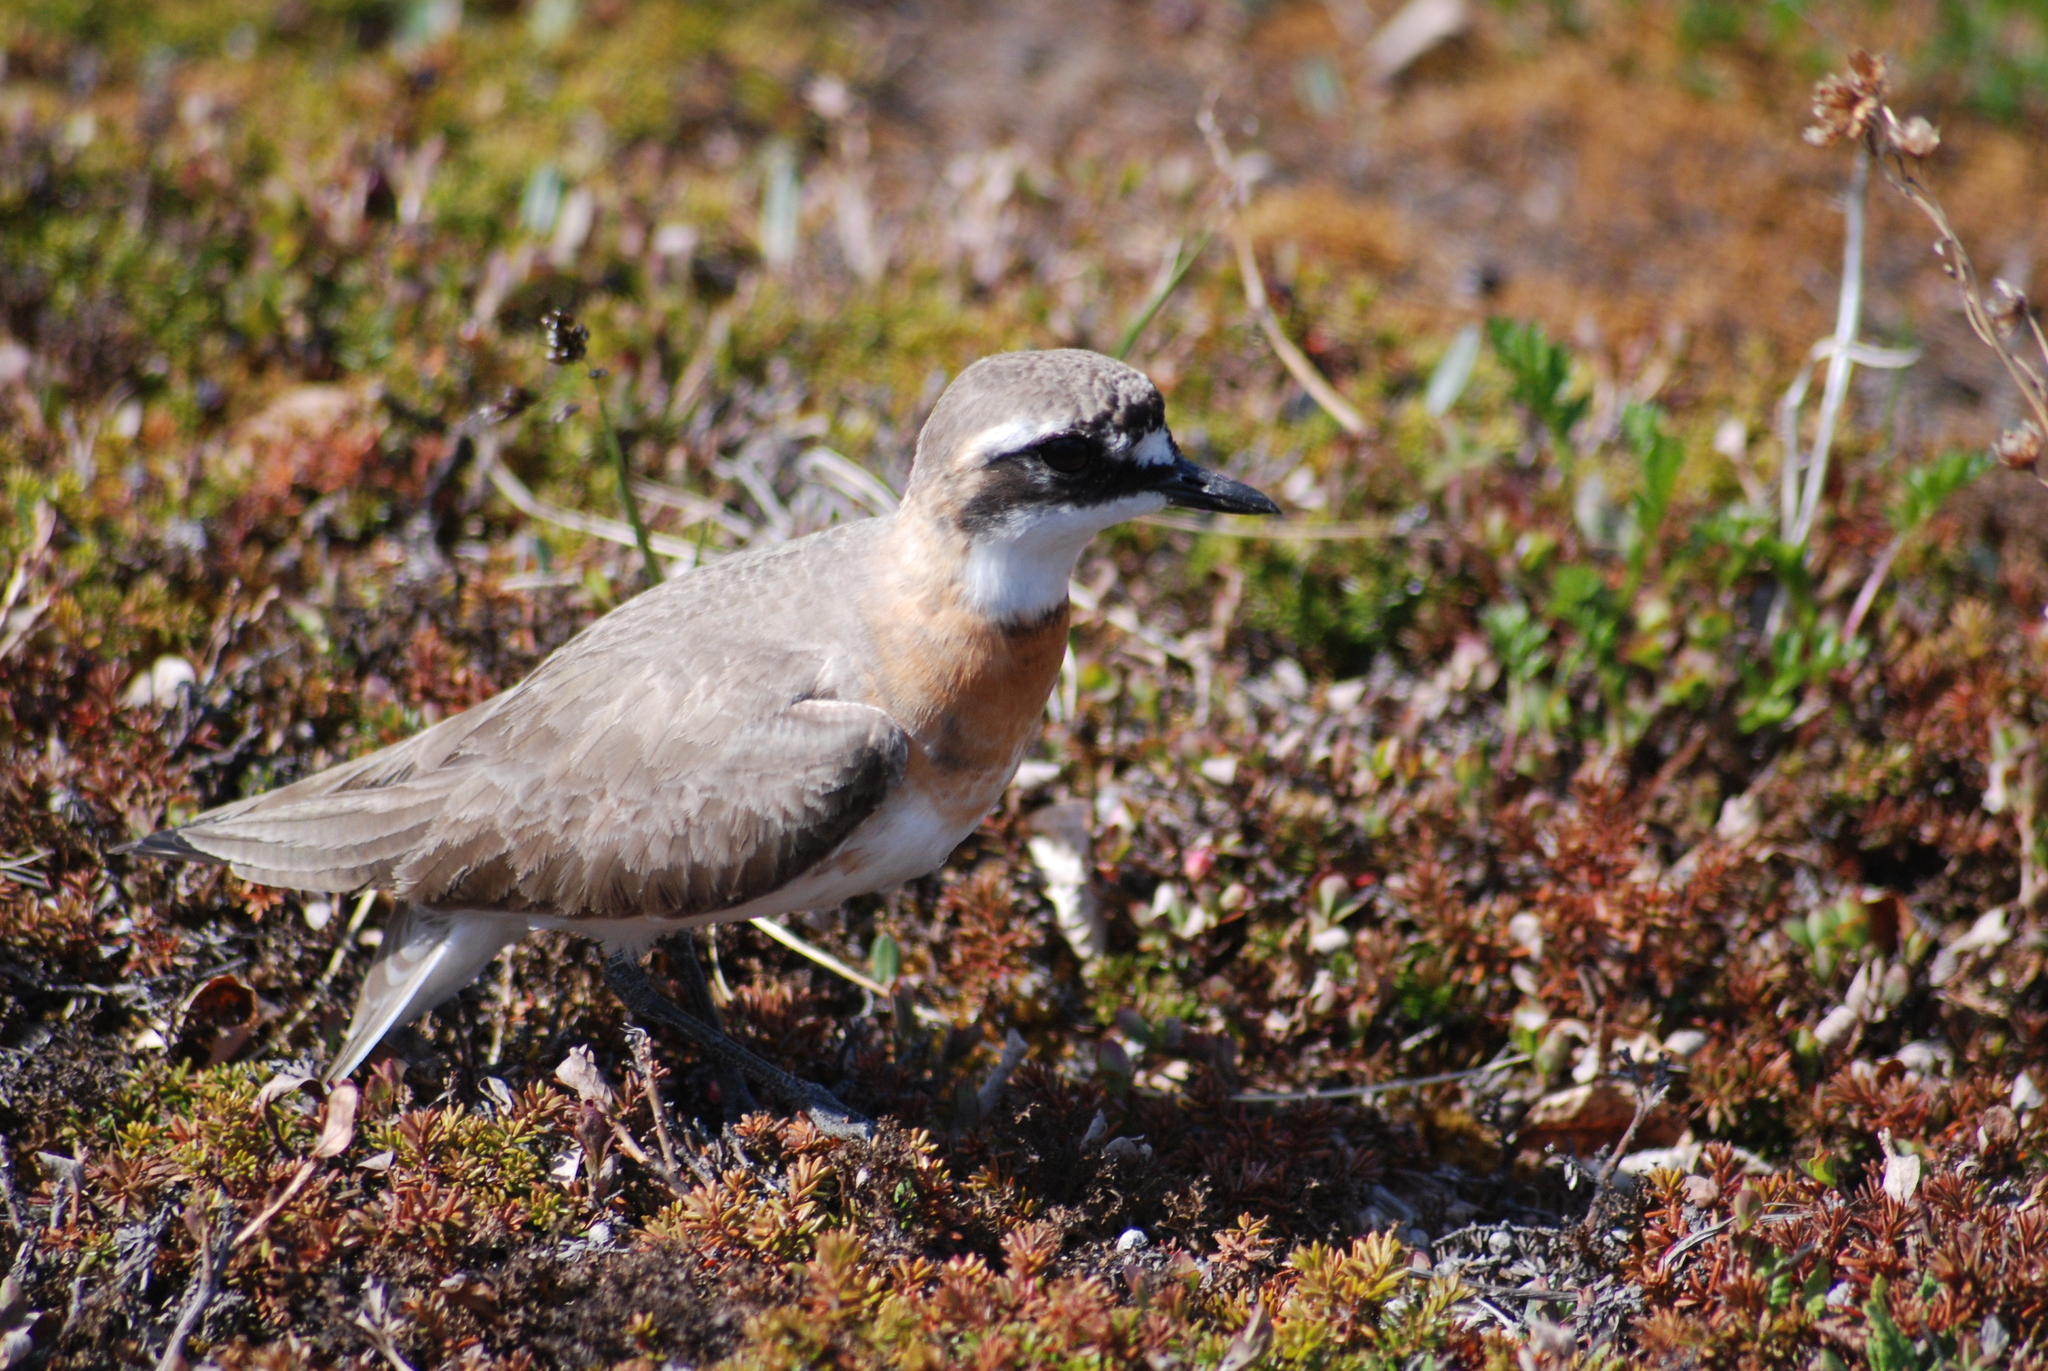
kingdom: Animalia
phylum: Chordata
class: Aves
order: Charadriiformes
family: Charadriidae
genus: Anarhynchus
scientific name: Anarhynchus
